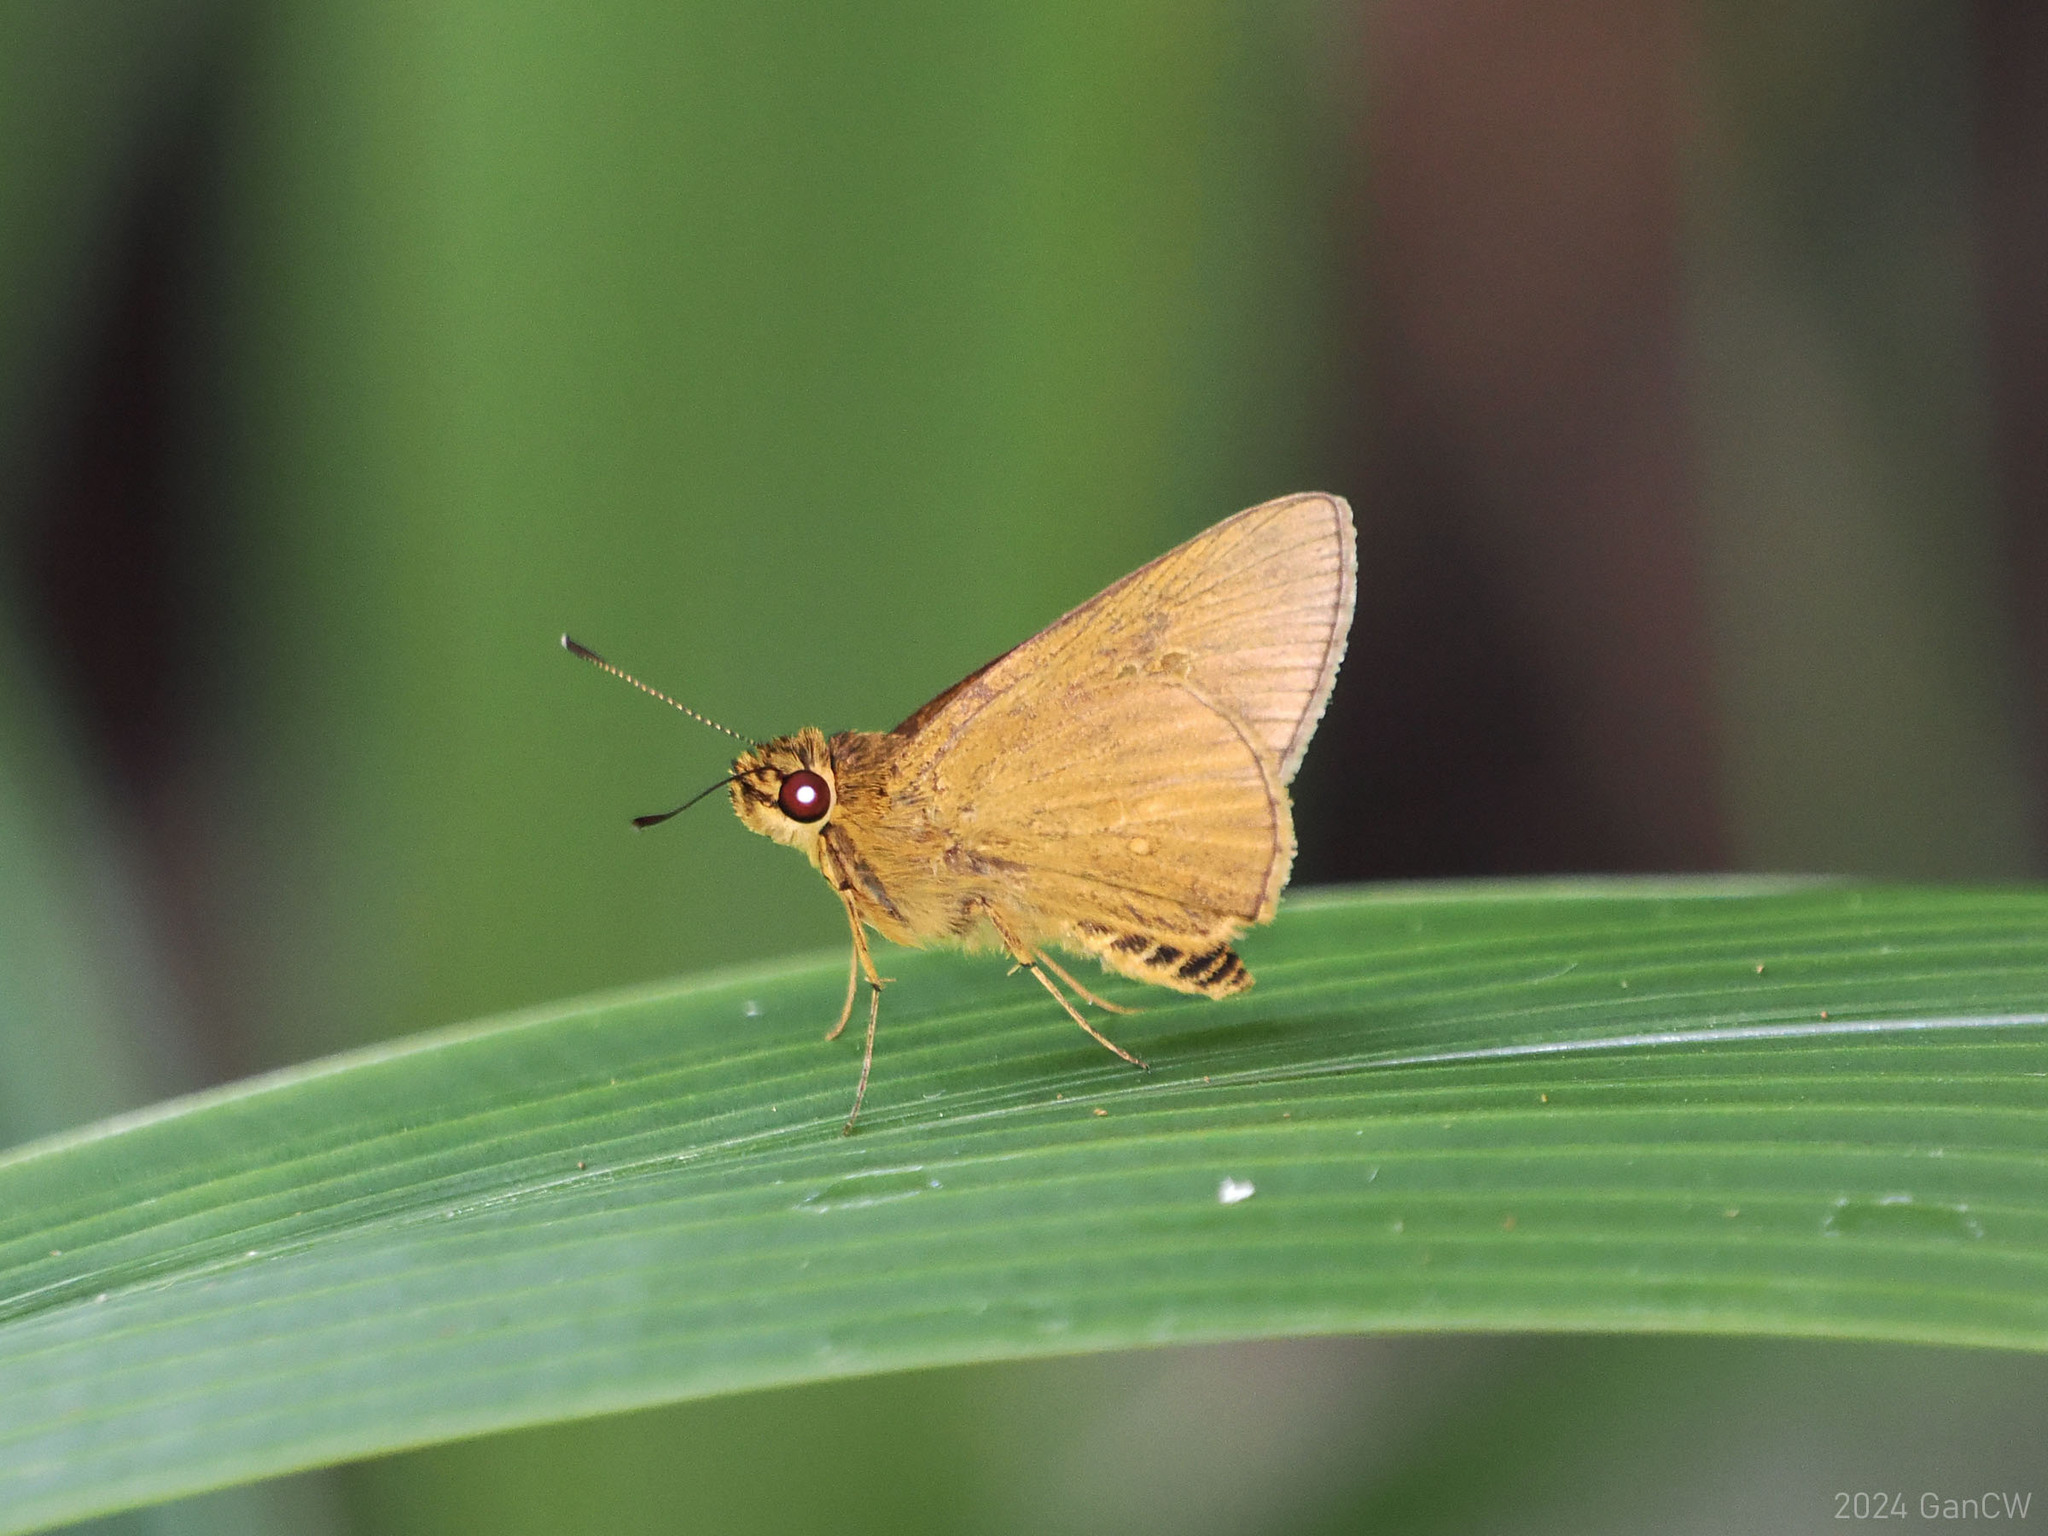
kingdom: Animalia
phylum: Arthropoda
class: Insecta
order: Lepidoptera
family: Hesperiidae
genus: Xanthoneura
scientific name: Xanthoneura telesinus
